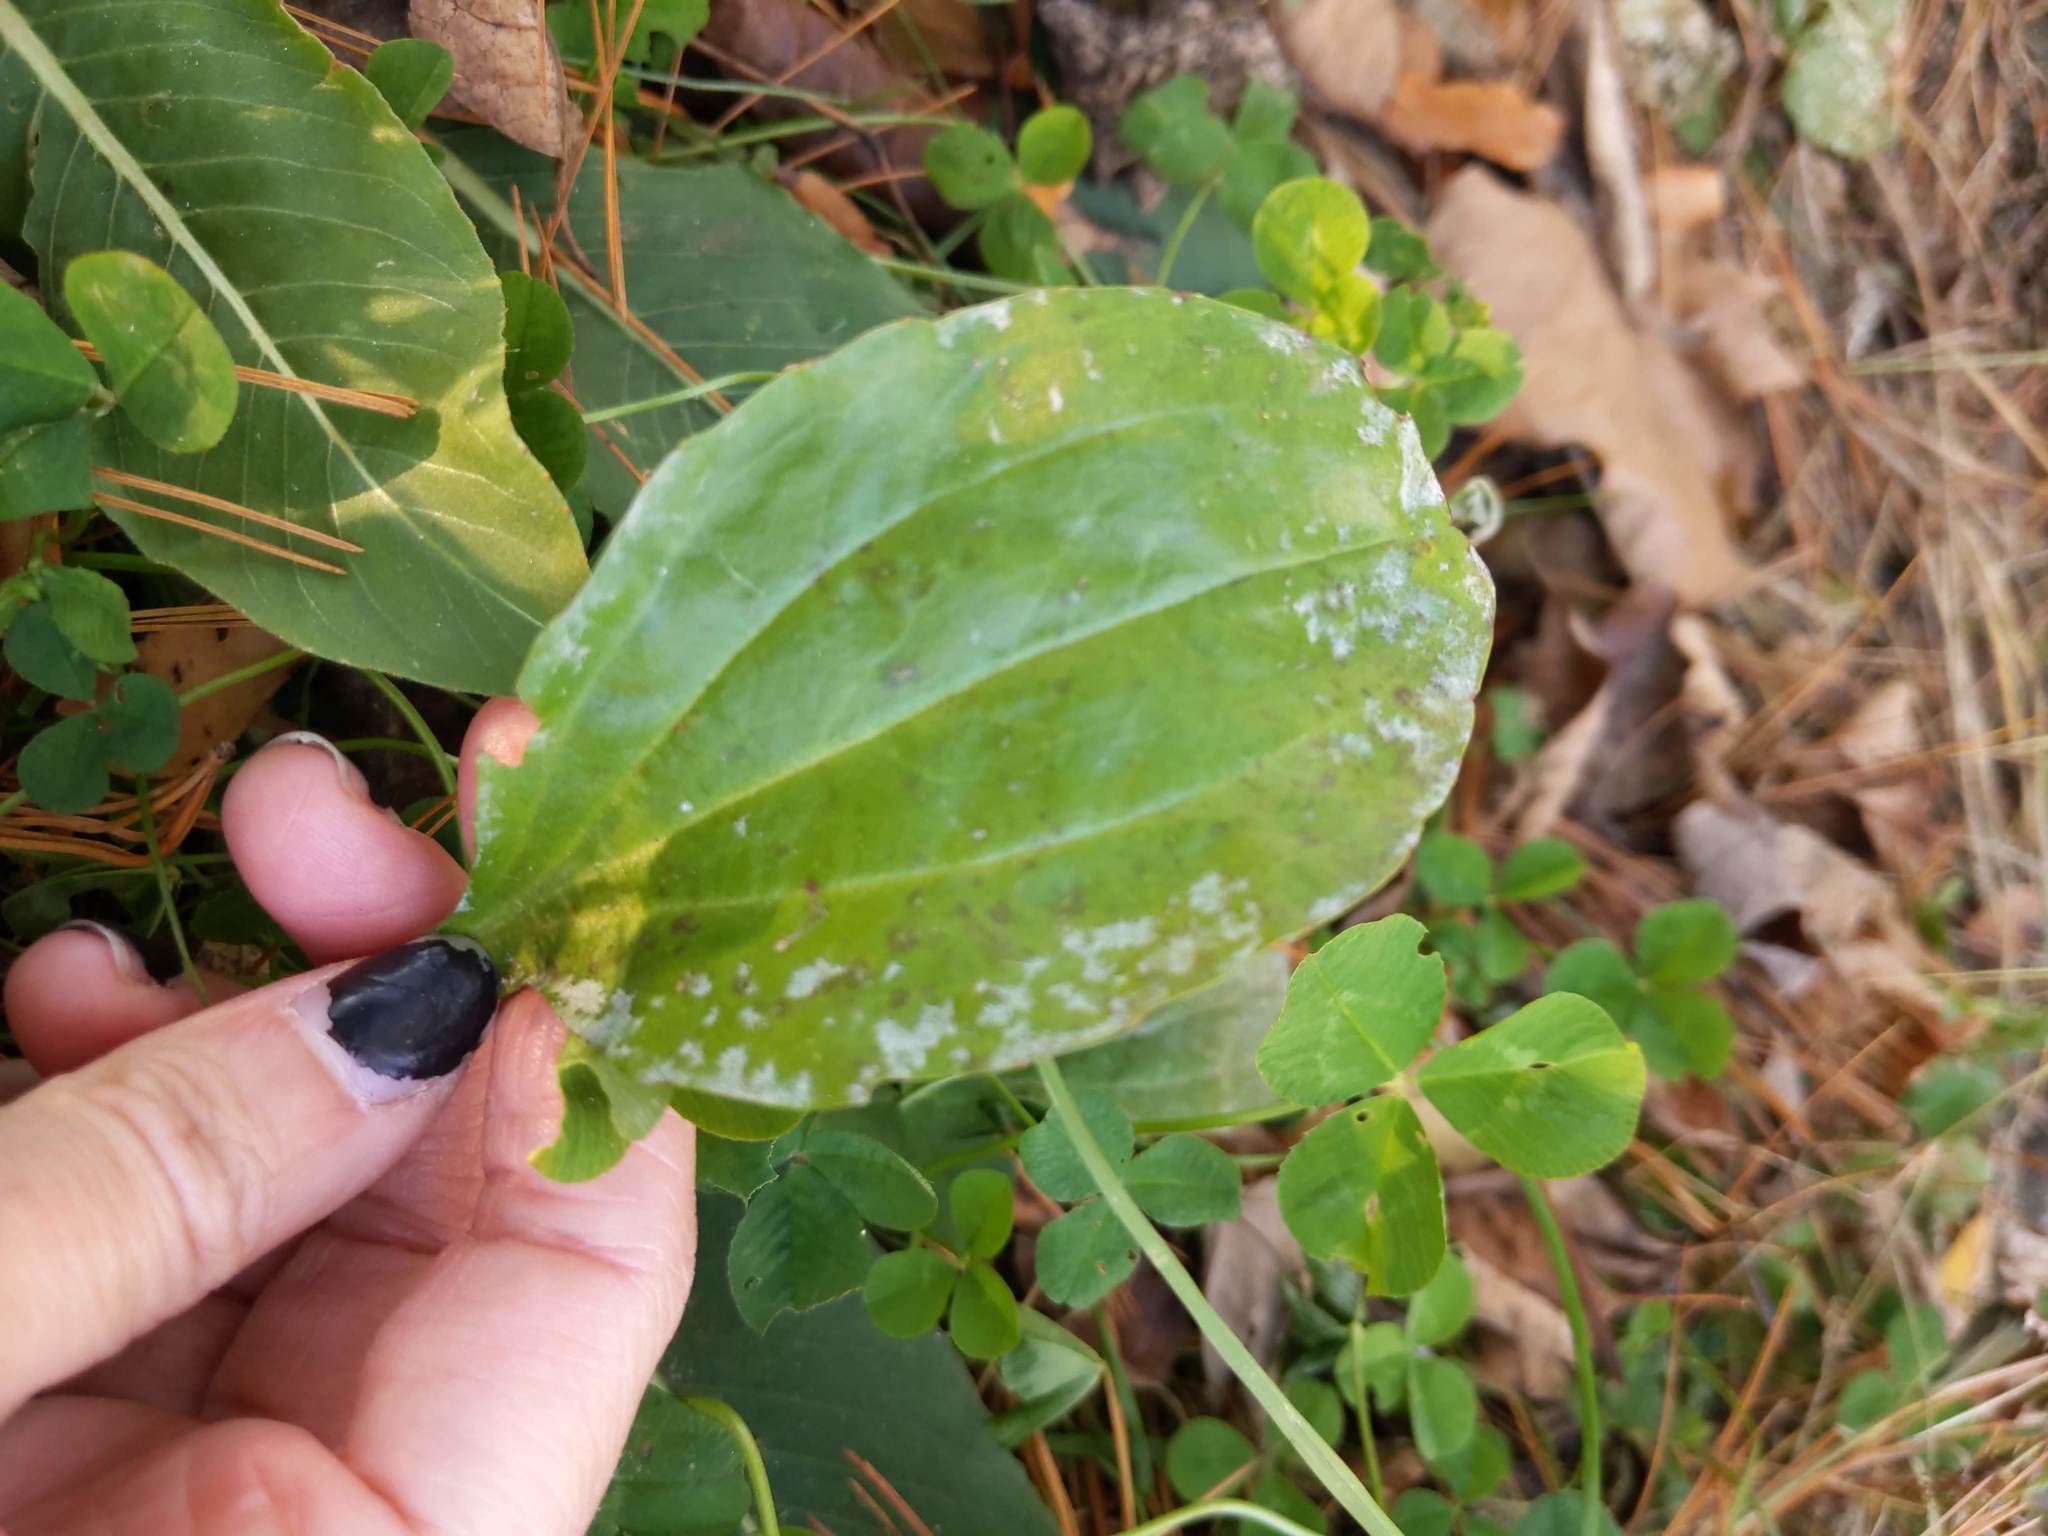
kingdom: Fungi
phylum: Ascomycota
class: Leotiomycetes
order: Helotiales
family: Erysiphaceae
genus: Golovinomyces
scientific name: Golovinomyces sordidus
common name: Plantain mildew
